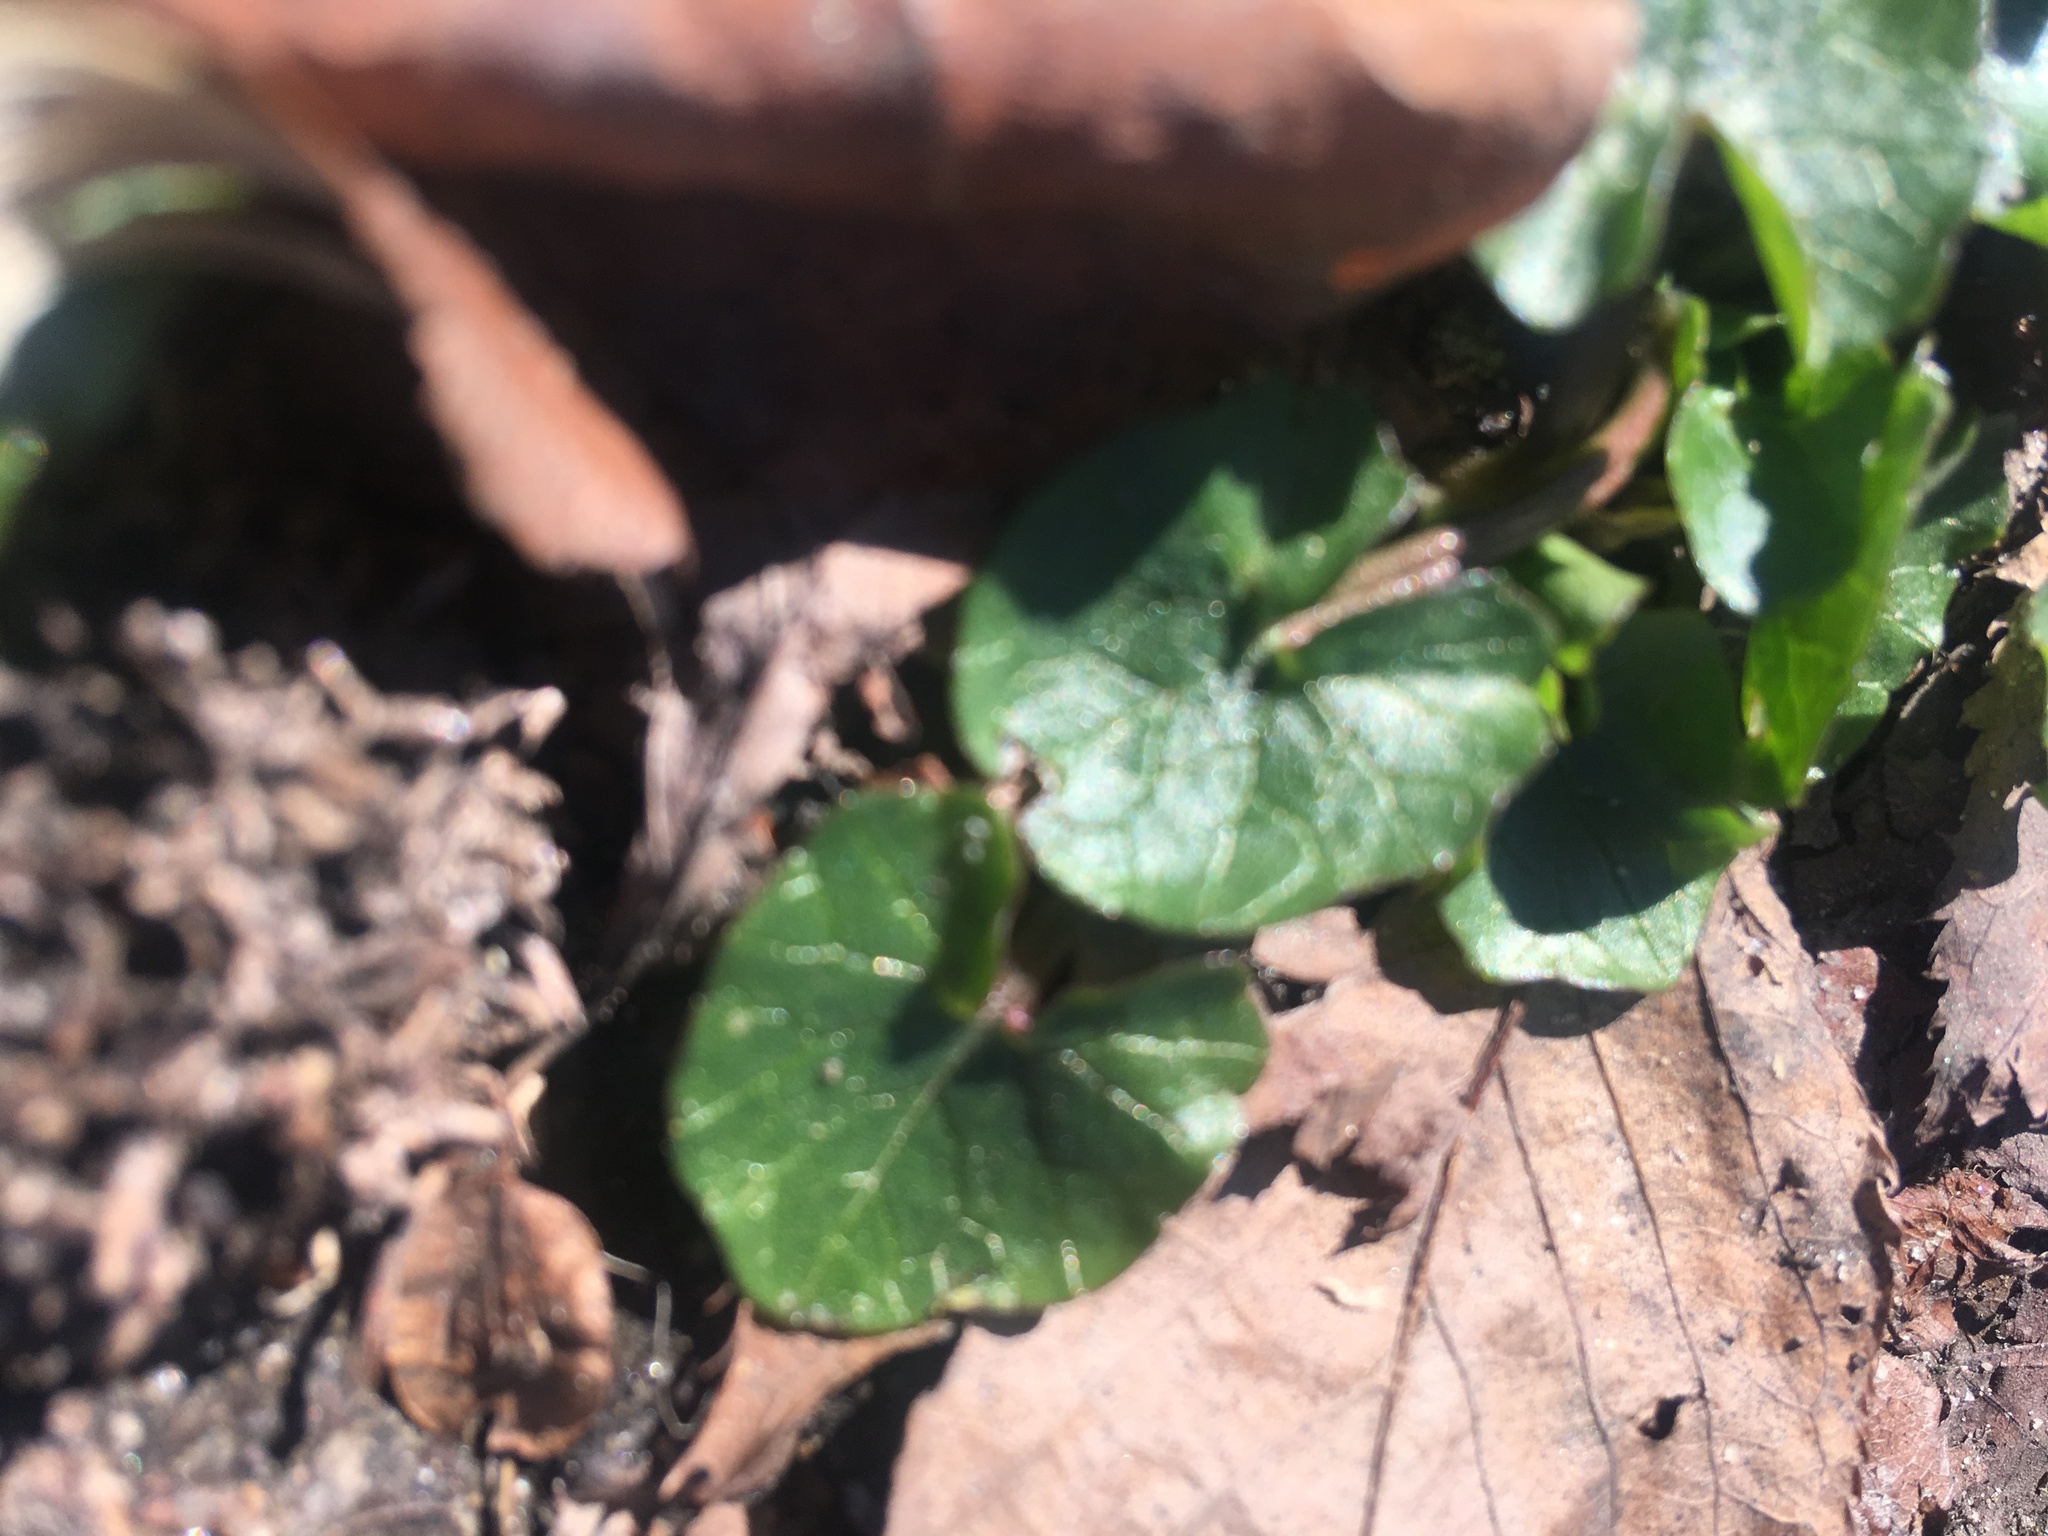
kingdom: Plantae
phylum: Tracheophyta
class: Magnoliopsida
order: Ranunculales
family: Ranunculaceae
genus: Ficaria
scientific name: Ficaria verna
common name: Lesser celandine
